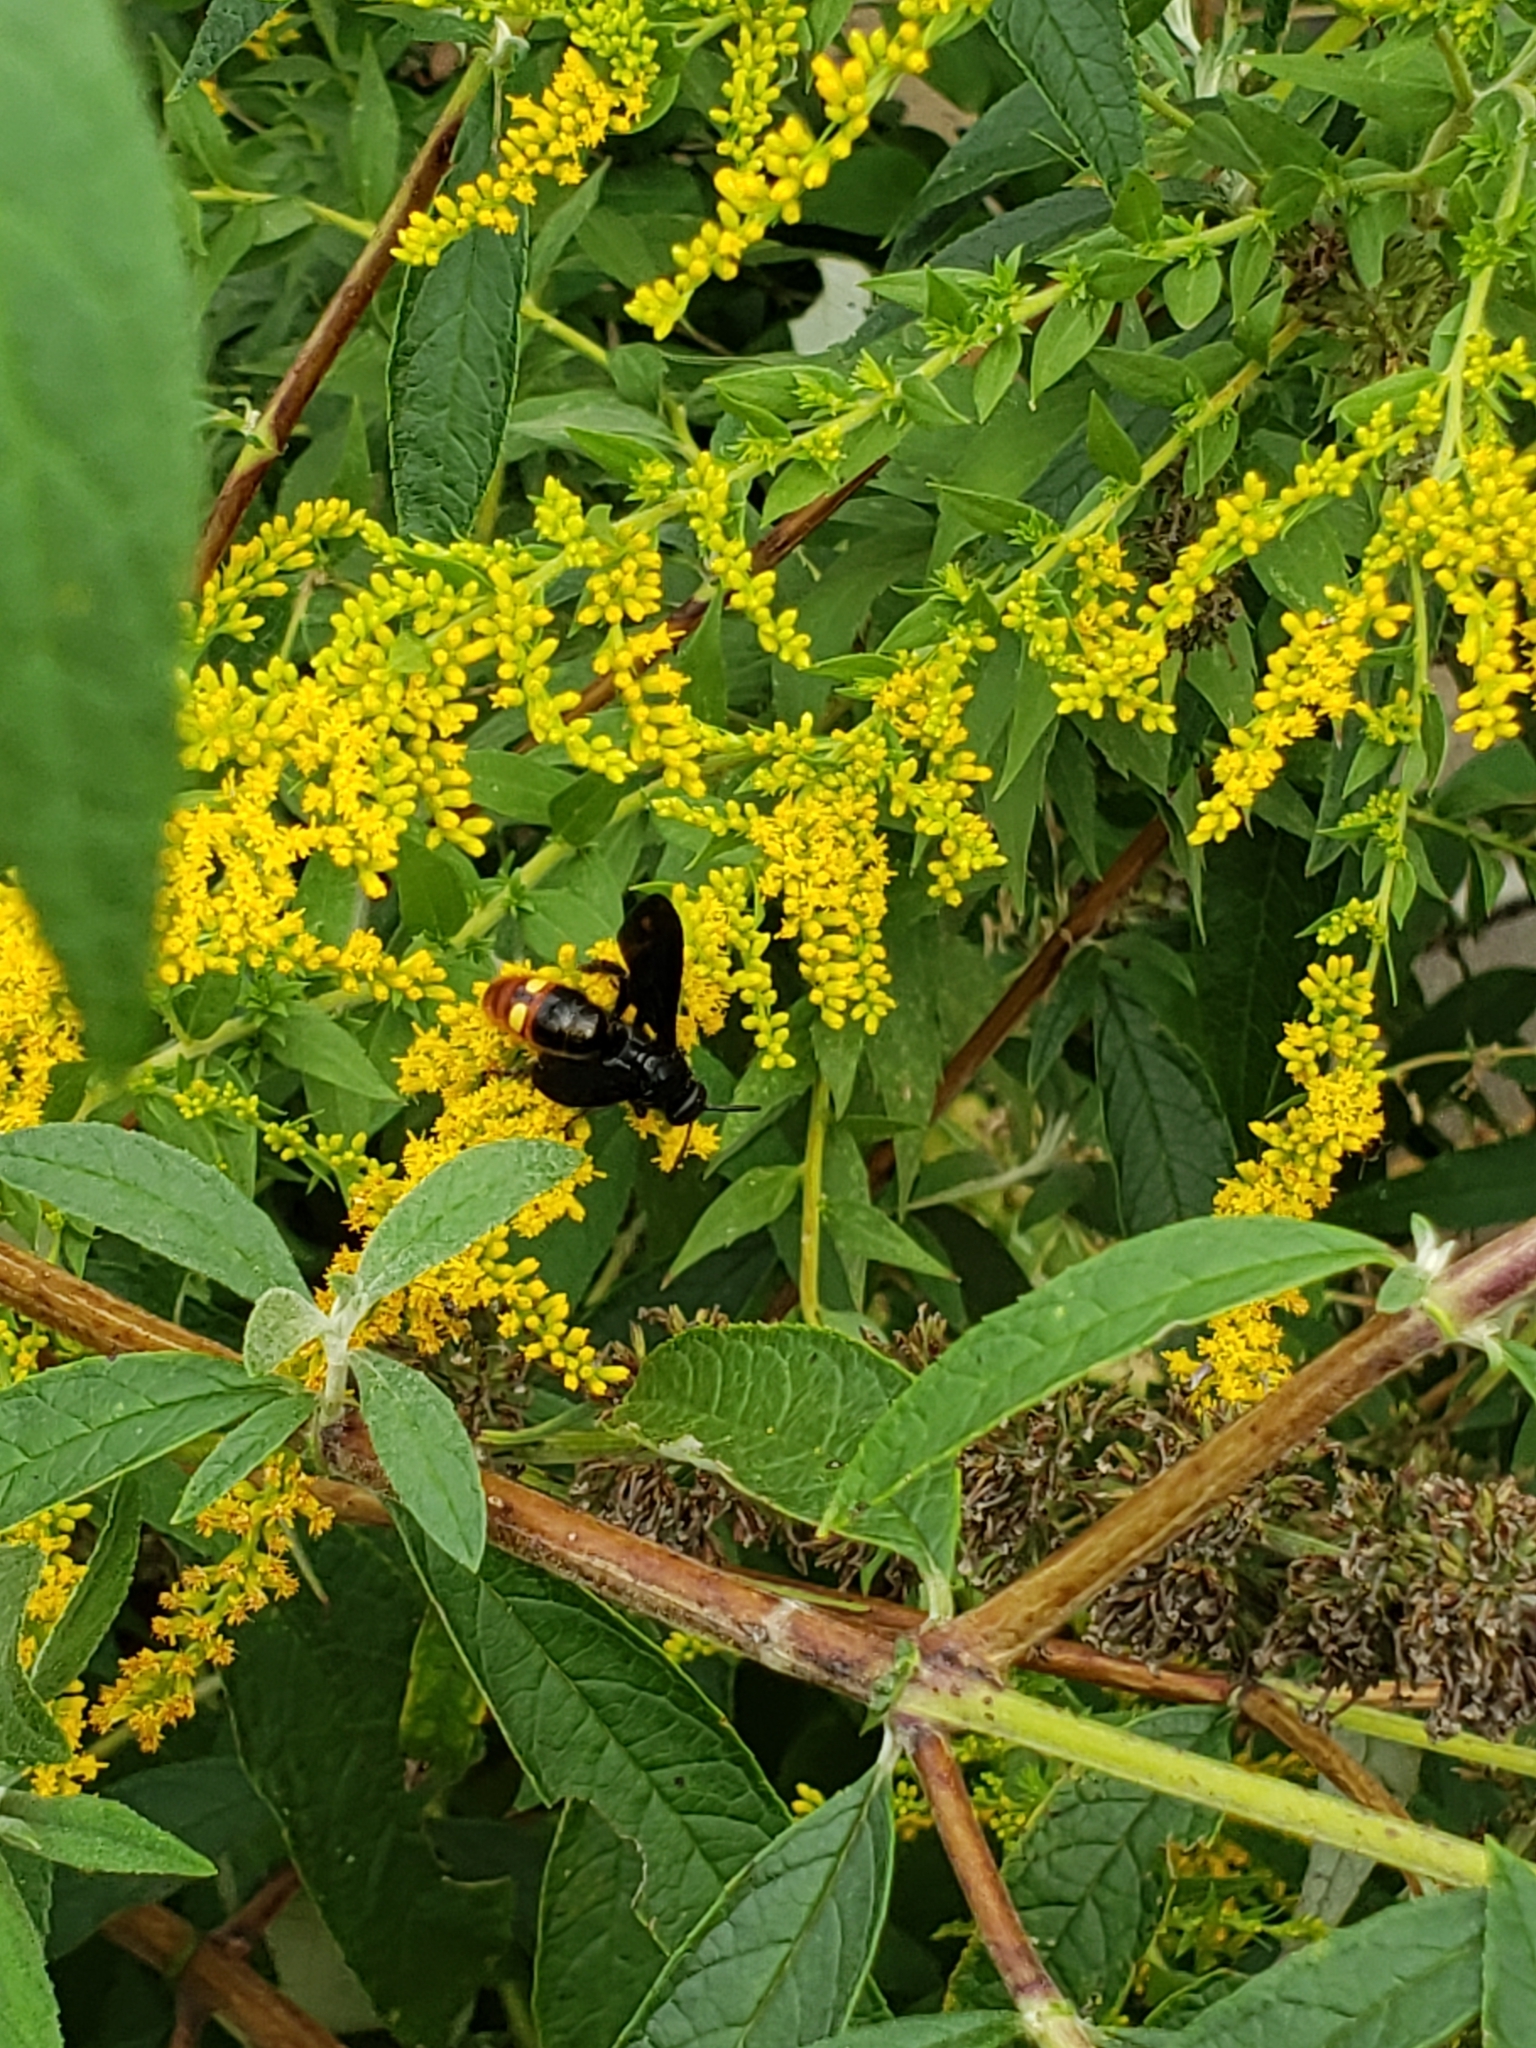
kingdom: Animalia
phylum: Arthropoda
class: Insecta
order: Hymenoptera
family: Scoliidae
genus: Scolia
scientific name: Scolia dubia
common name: Blue-winged scoliid wasp
